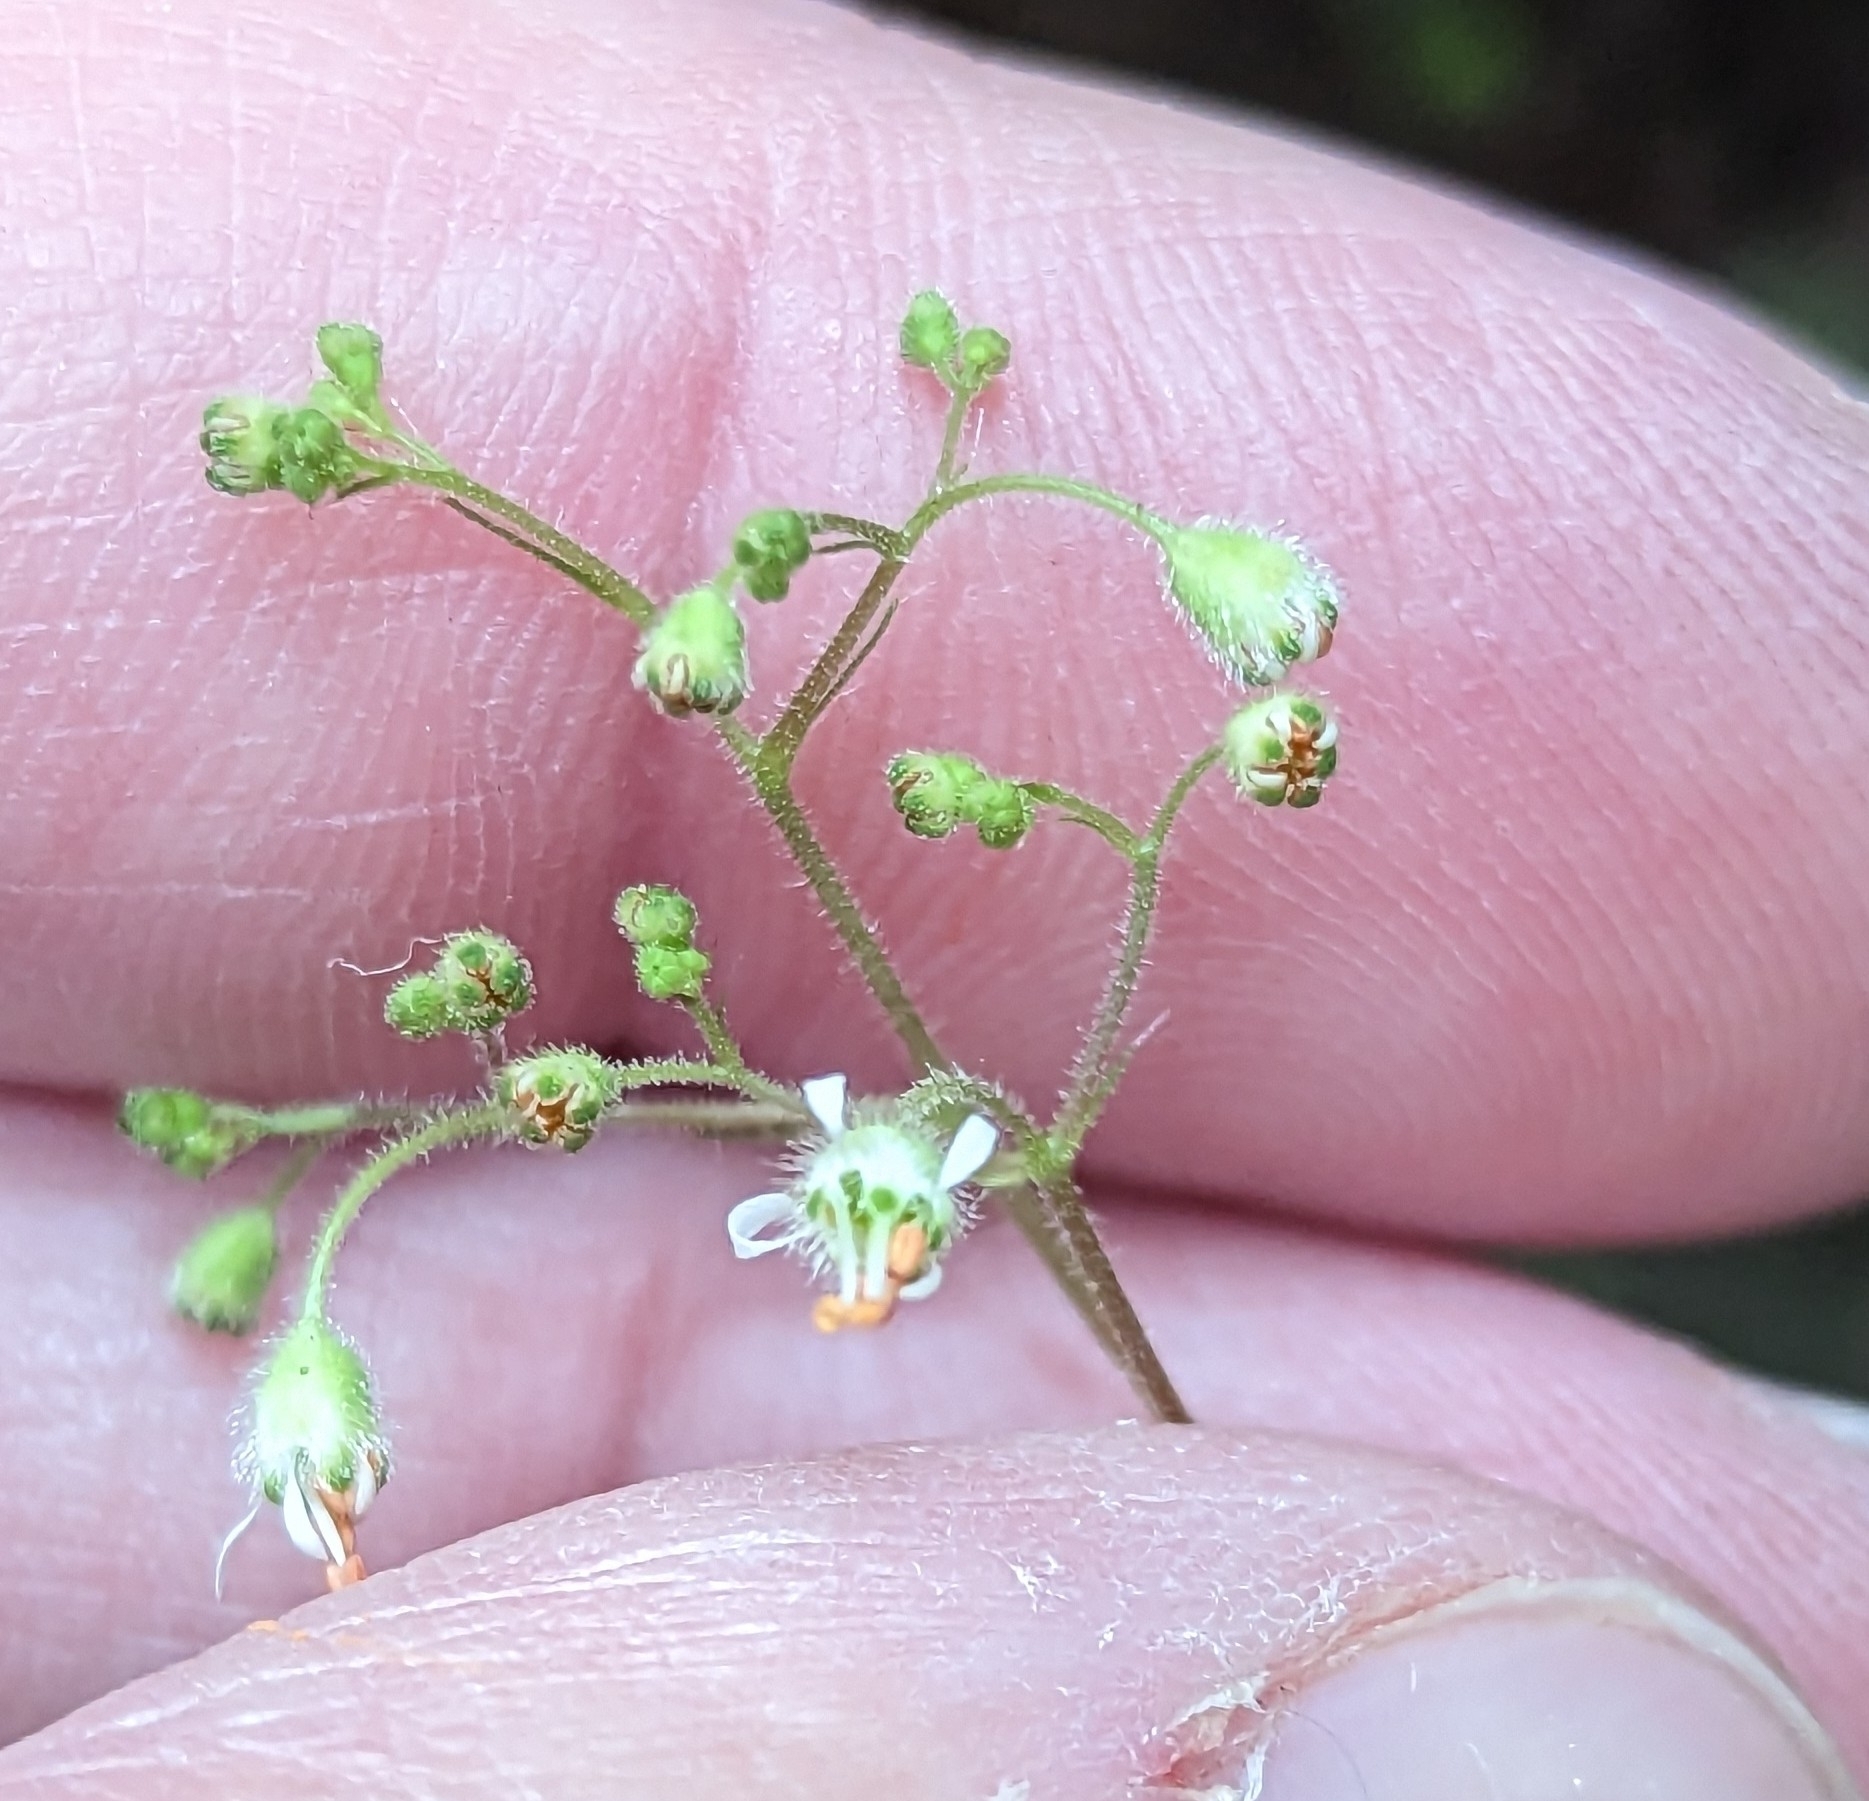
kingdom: Plantae
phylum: Tracheophyta
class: Magnoliopsida
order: Saxifragales
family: Saxifragaceae
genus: Heuchera
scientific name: Heuchera micrantha
